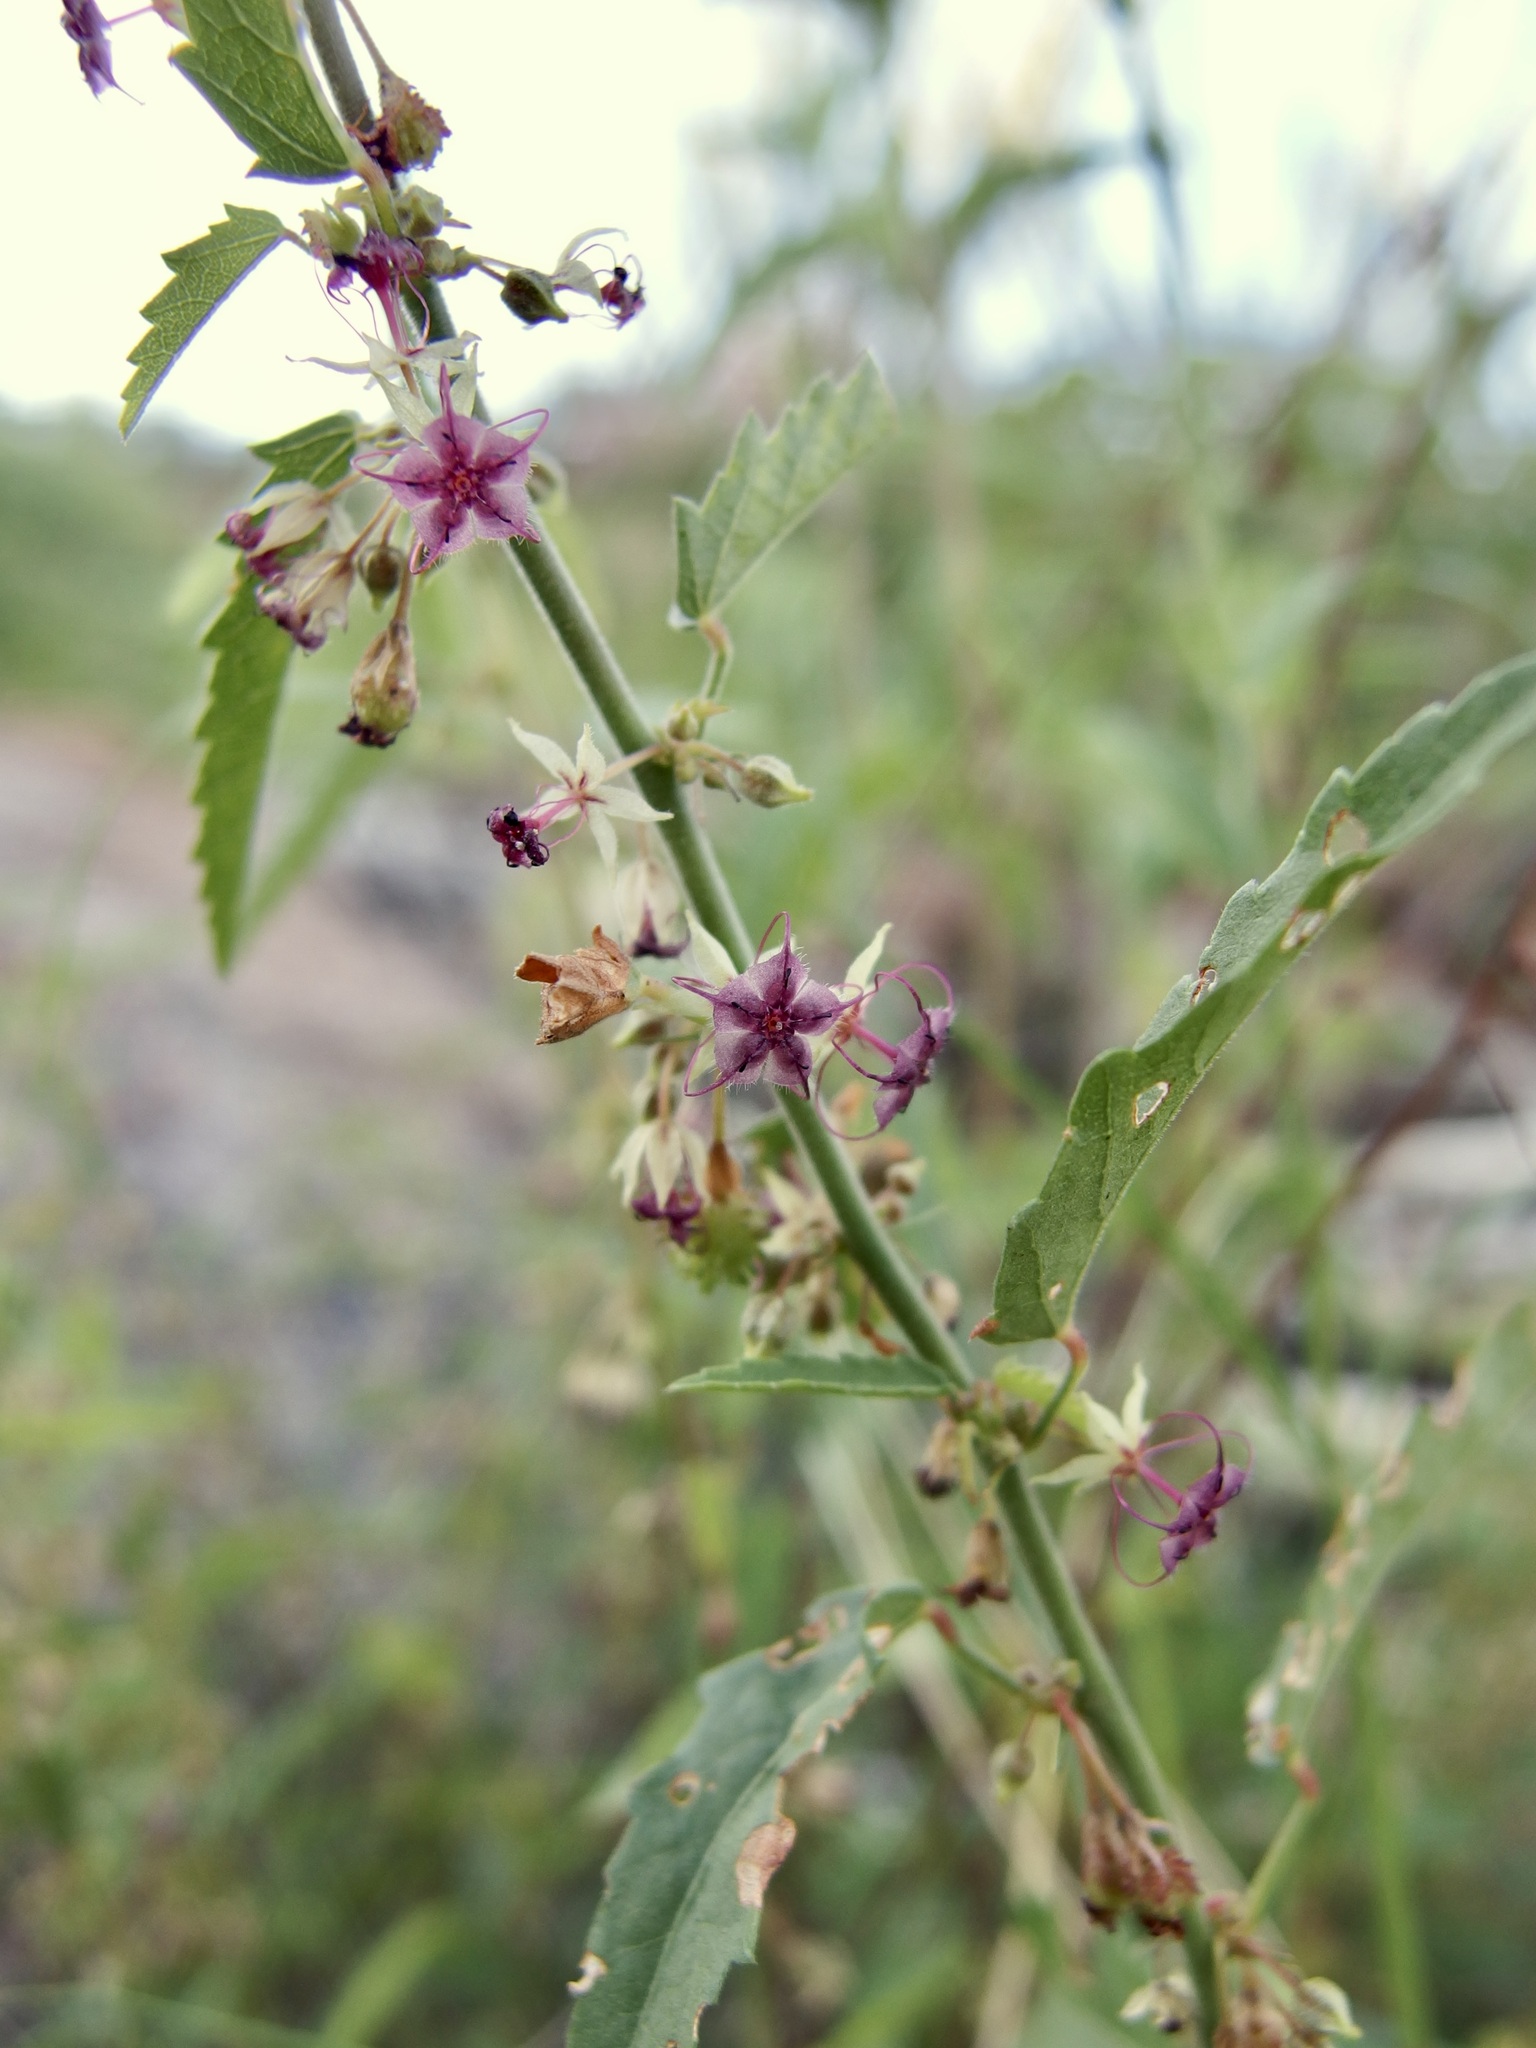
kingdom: Plantae
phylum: Tracheophyta
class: Magnoliopsida
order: Malvales
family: Malvaceae
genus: Ayenia
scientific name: Ayenia filiformis
